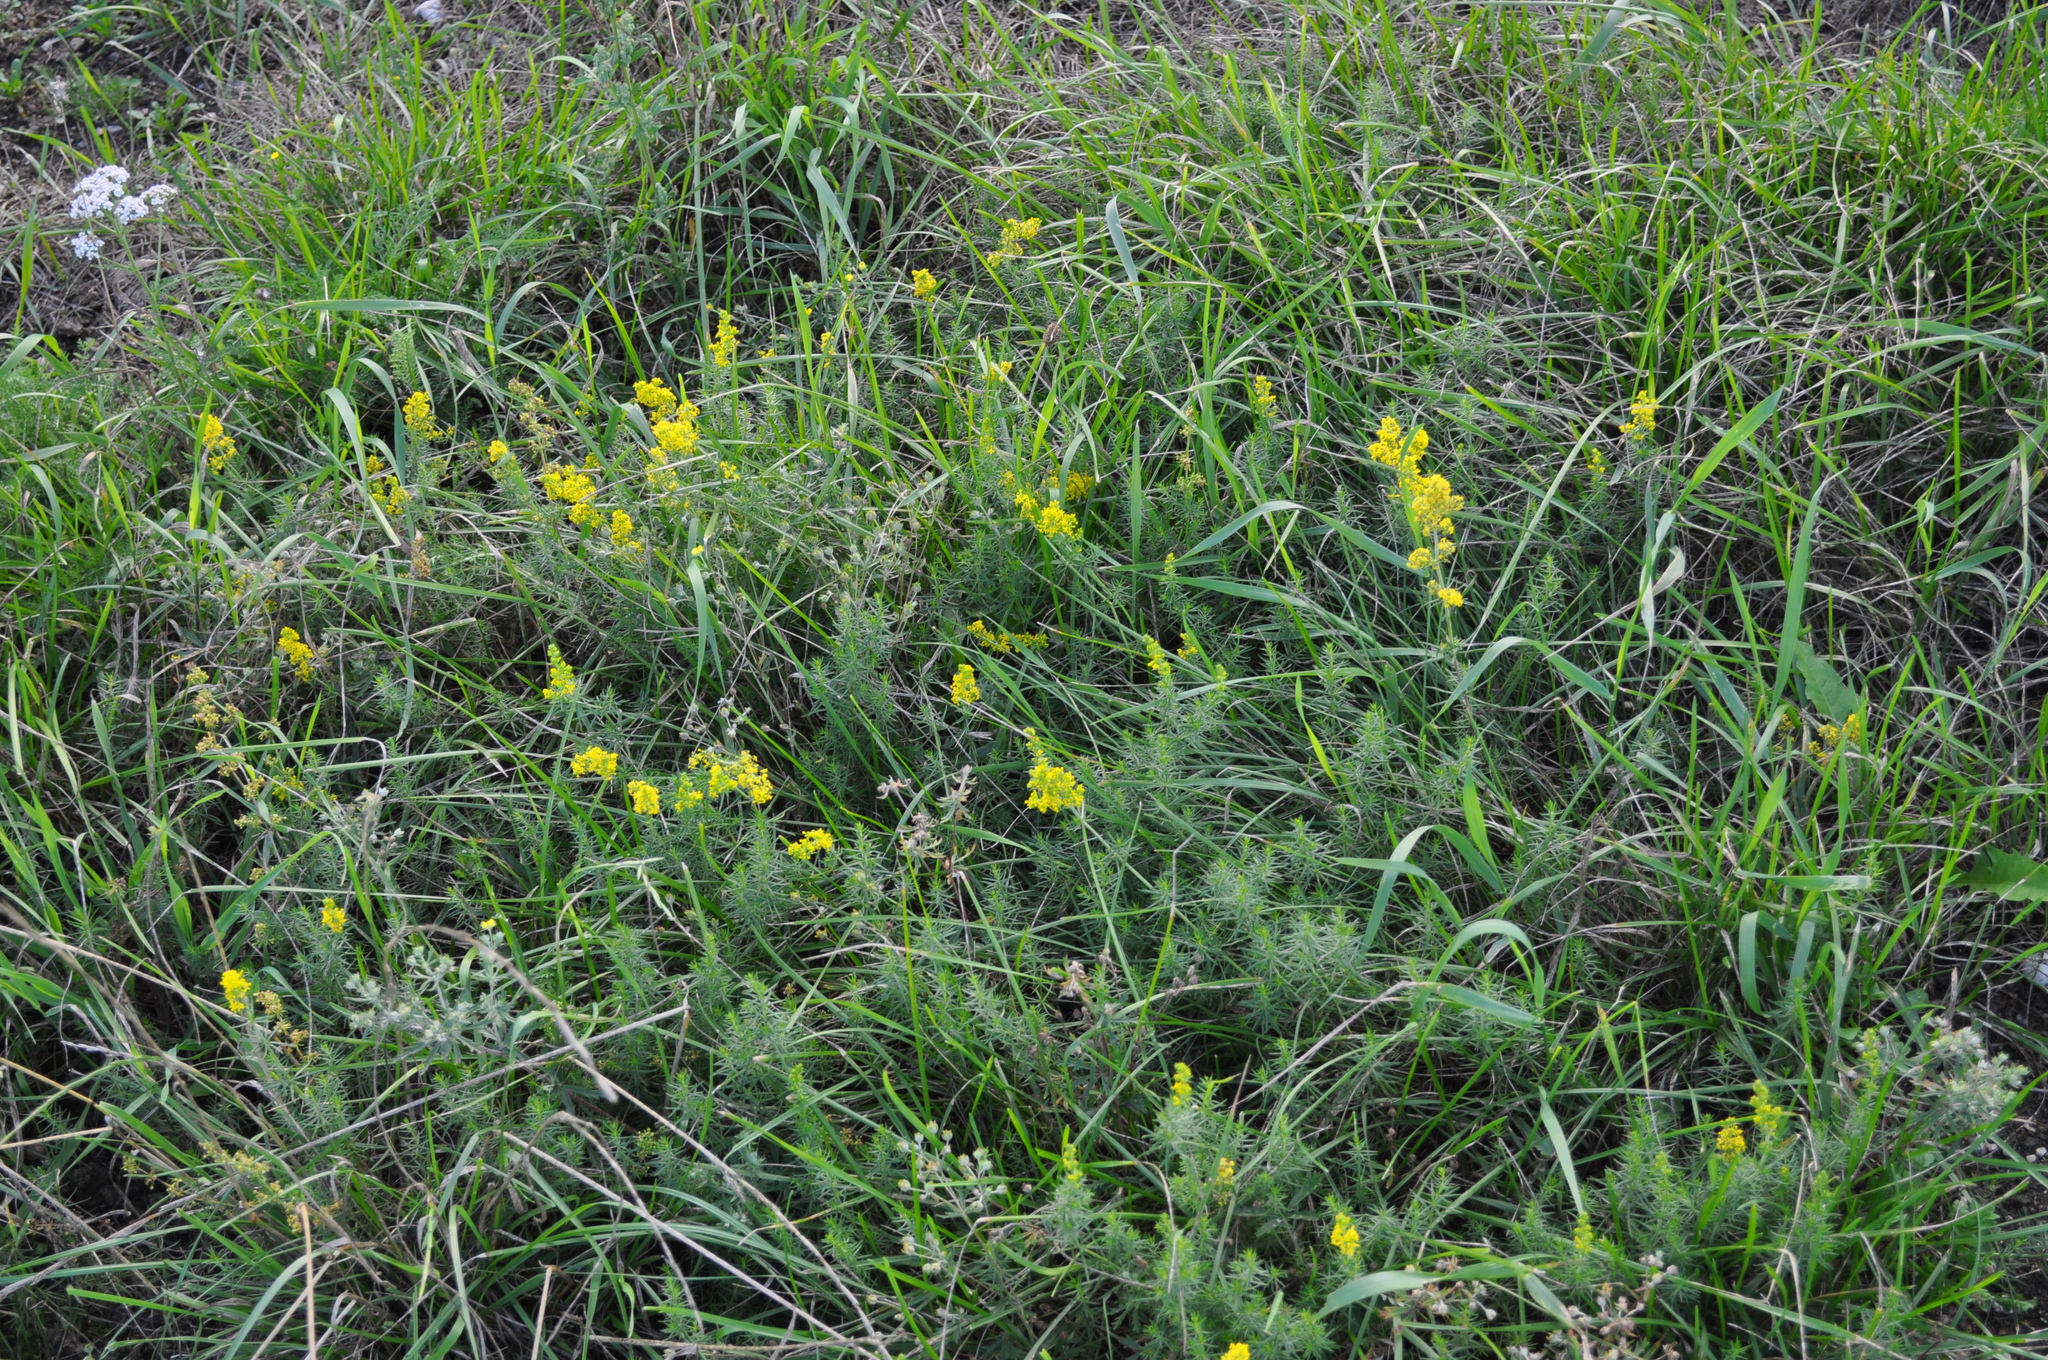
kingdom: Plantae
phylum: Tracheophyta
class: Magnoliopsida
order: Gentianales
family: Rubiaceae
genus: Galium
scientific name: Galium verum
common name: Lady's bedstraw
